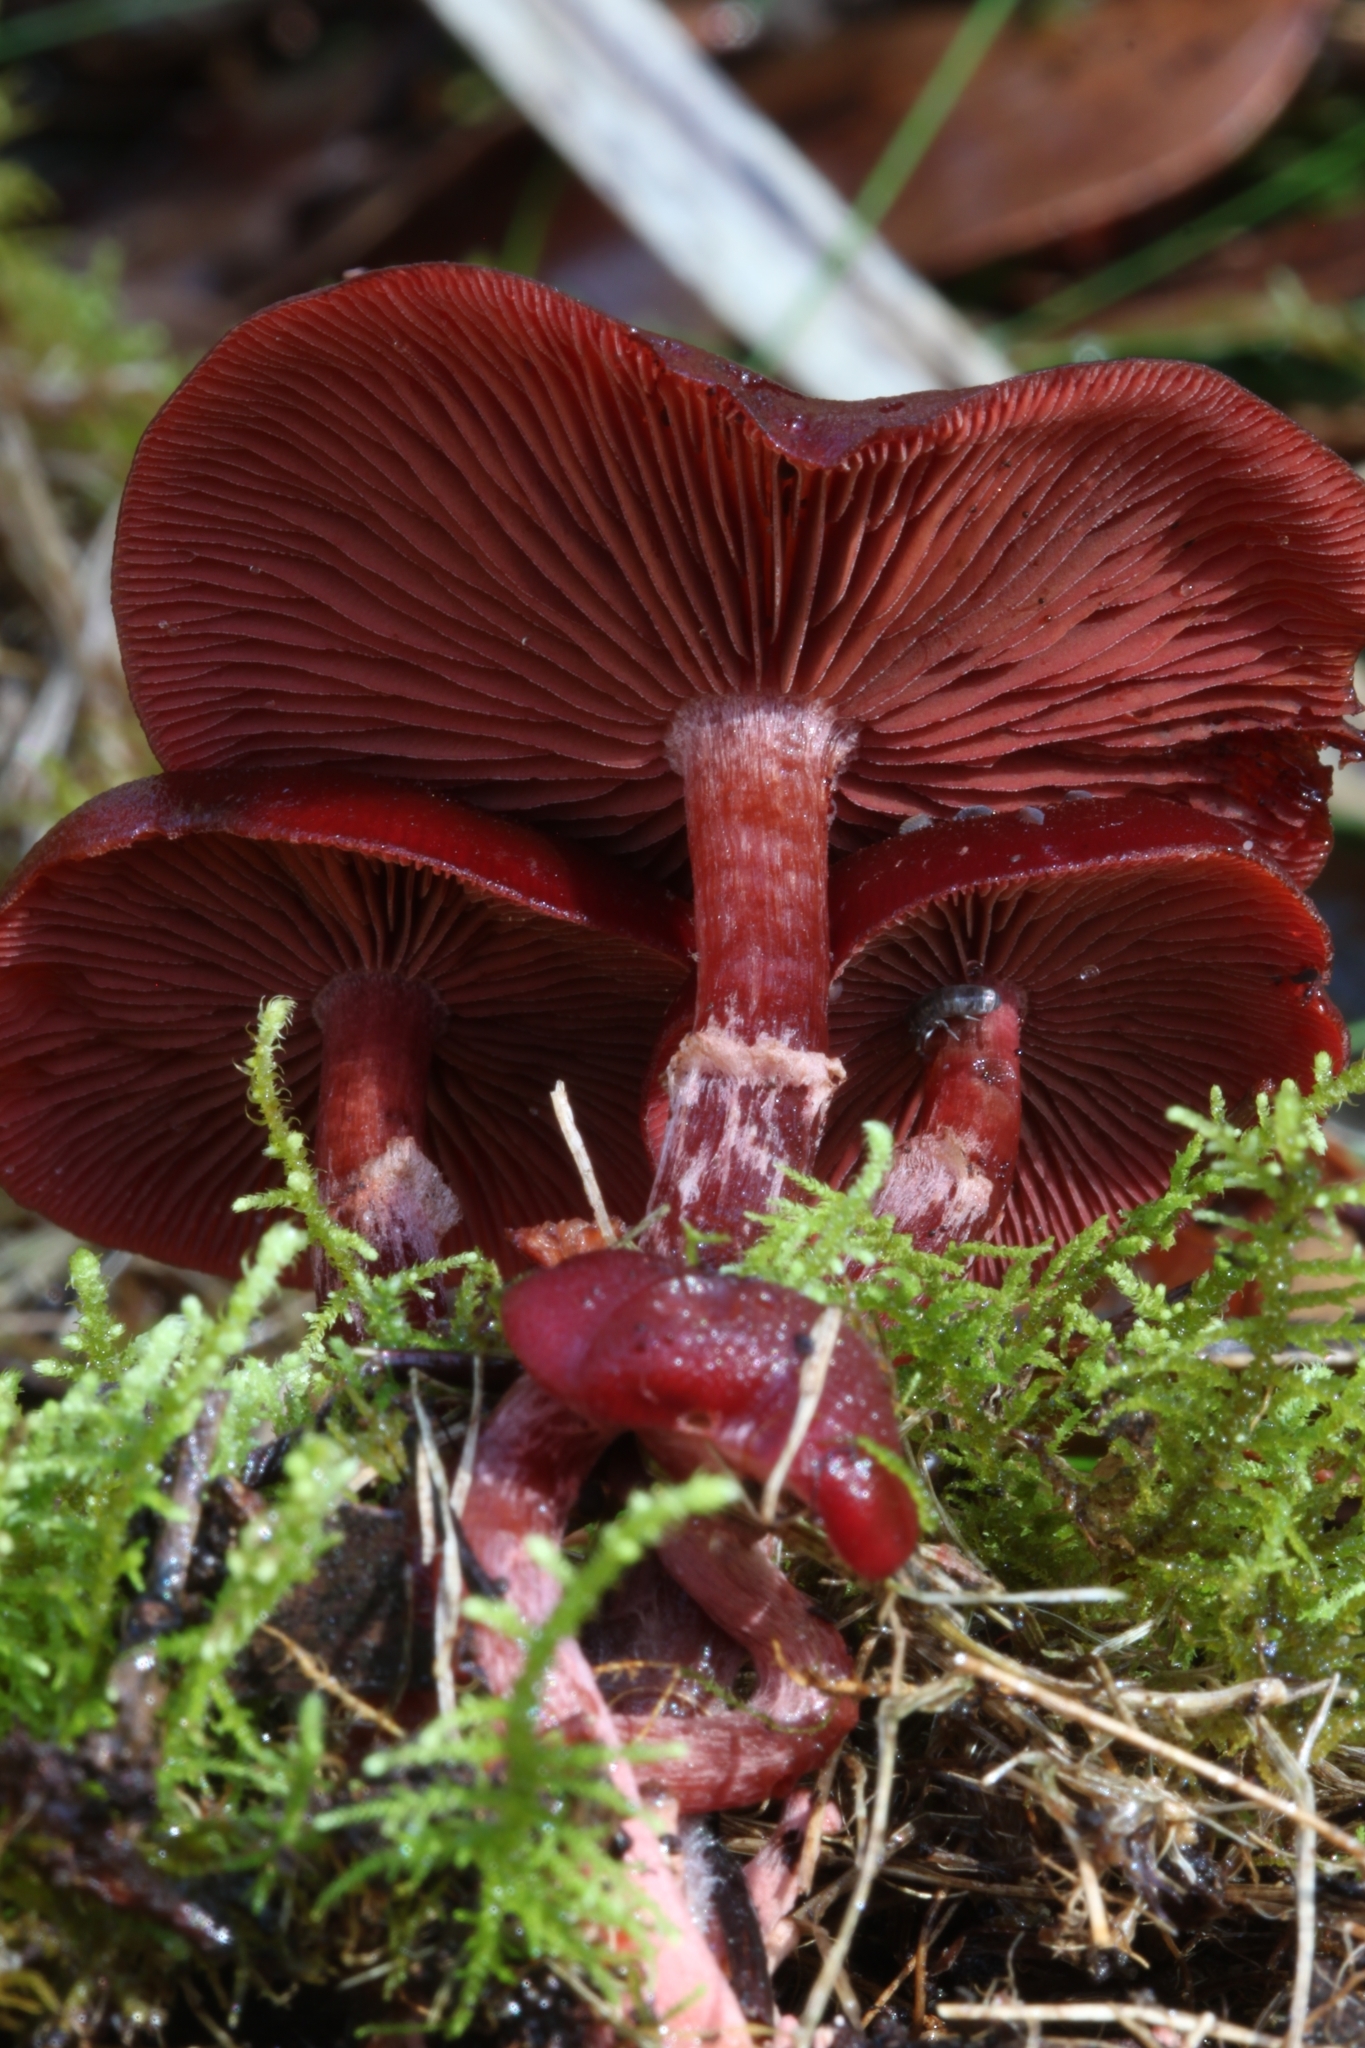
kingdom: Fungi
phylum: Basidiomycota
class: Agaricomycetes
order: Agaricales
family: Tubariaceae
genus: Tubaria
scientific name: Tubaria rufofulva
